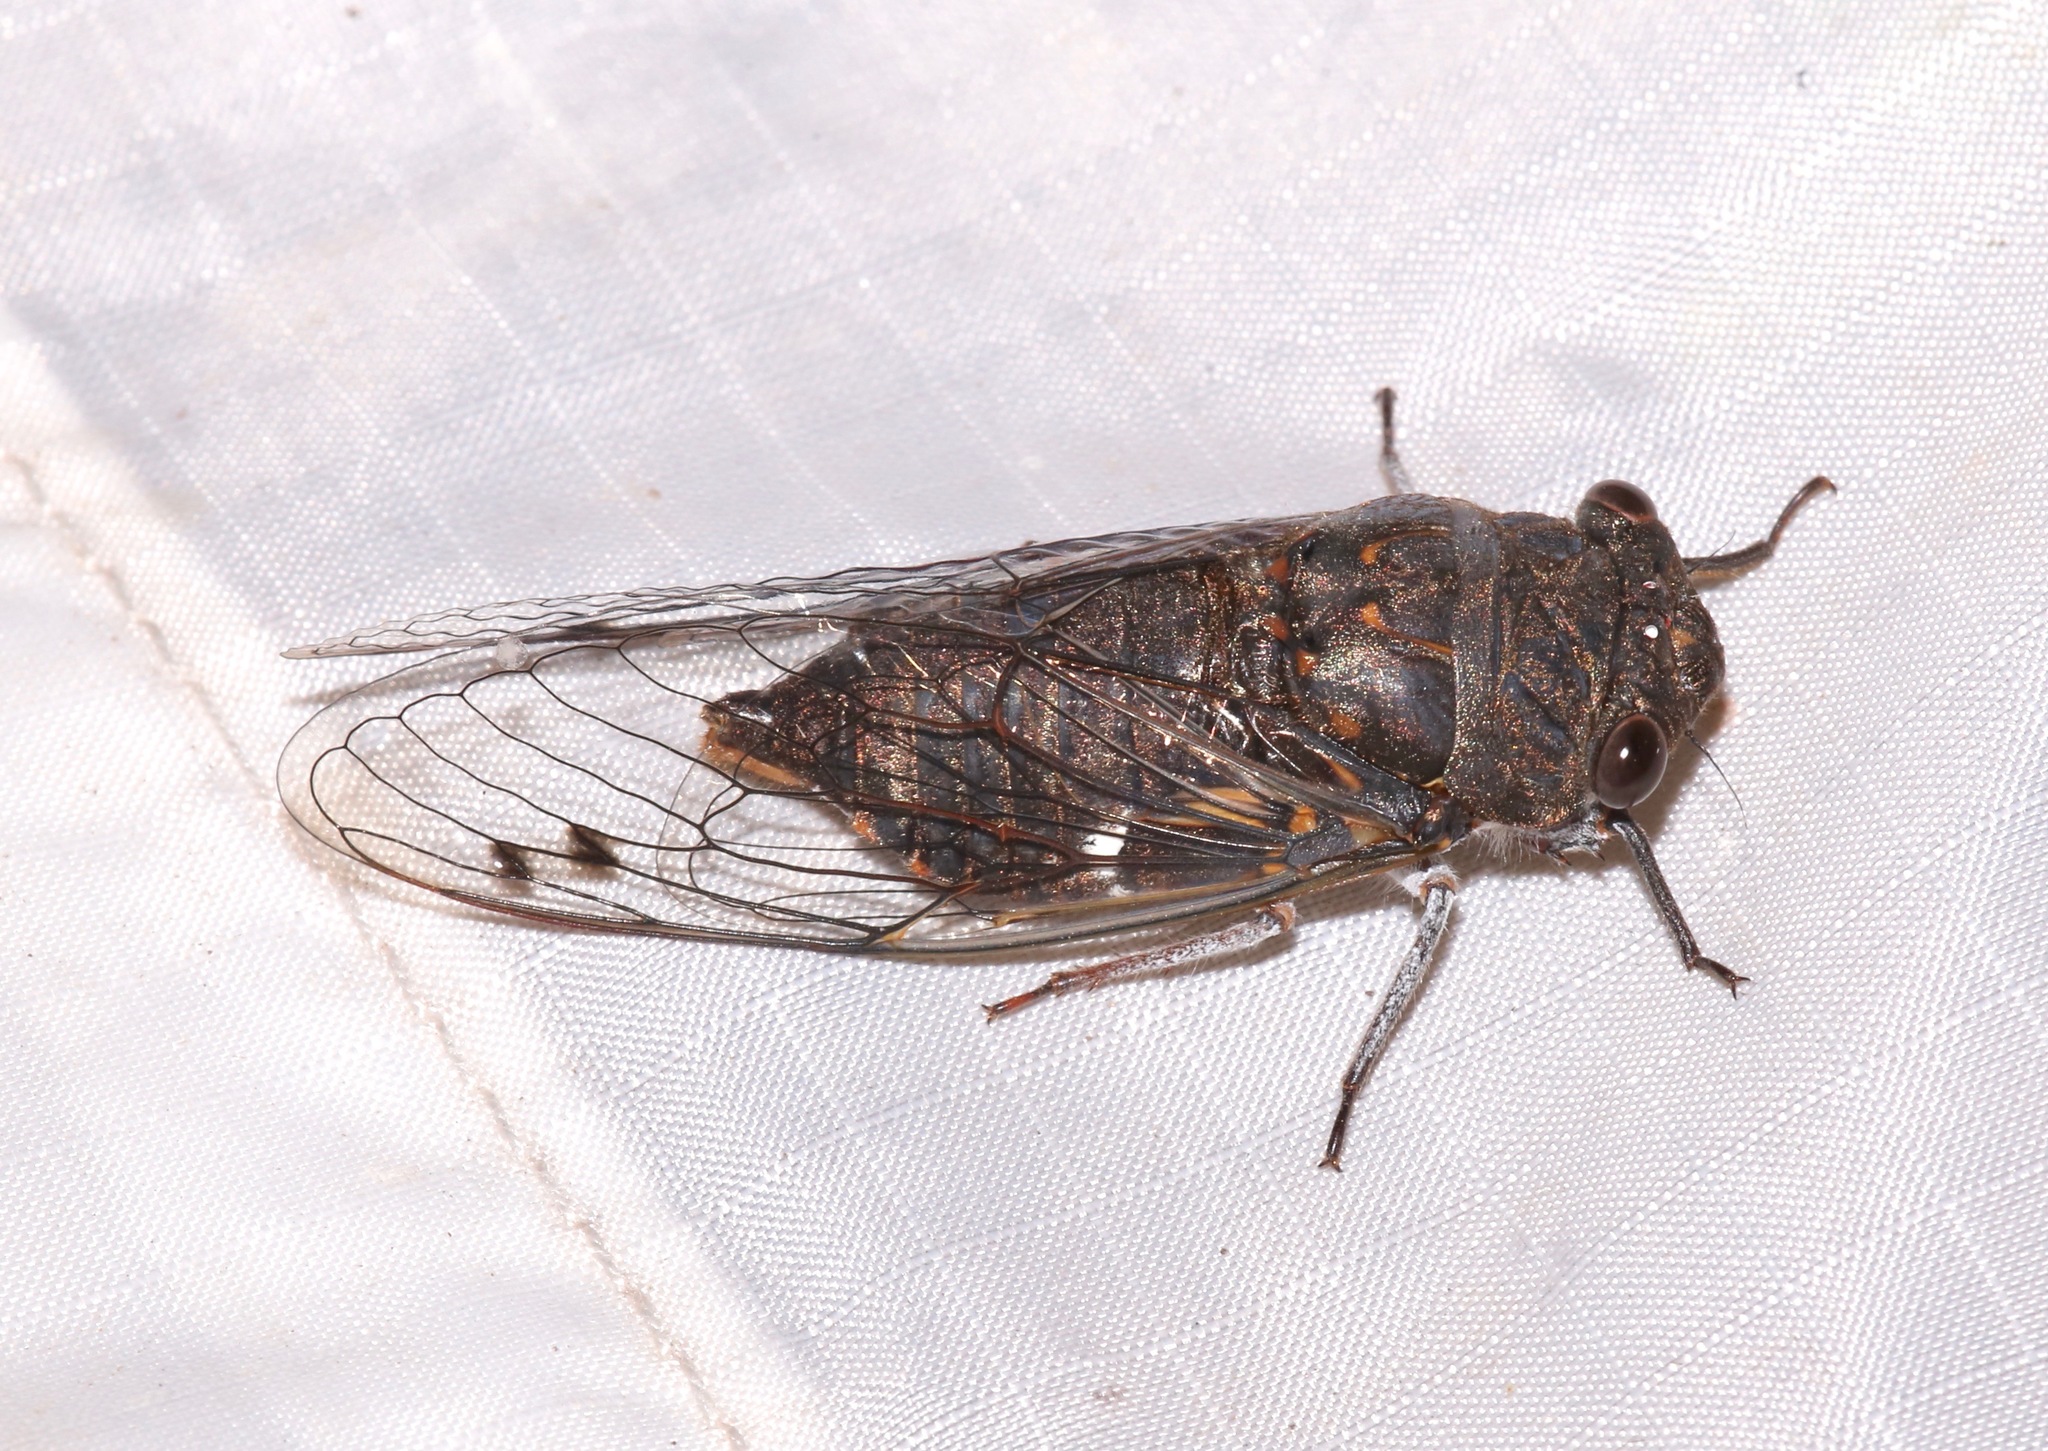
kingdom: Animalia
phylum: Arthropoda
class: Insecta
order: Hemiptera
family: Cicadidae
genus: Hadoa
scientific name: Hadoa parallela
